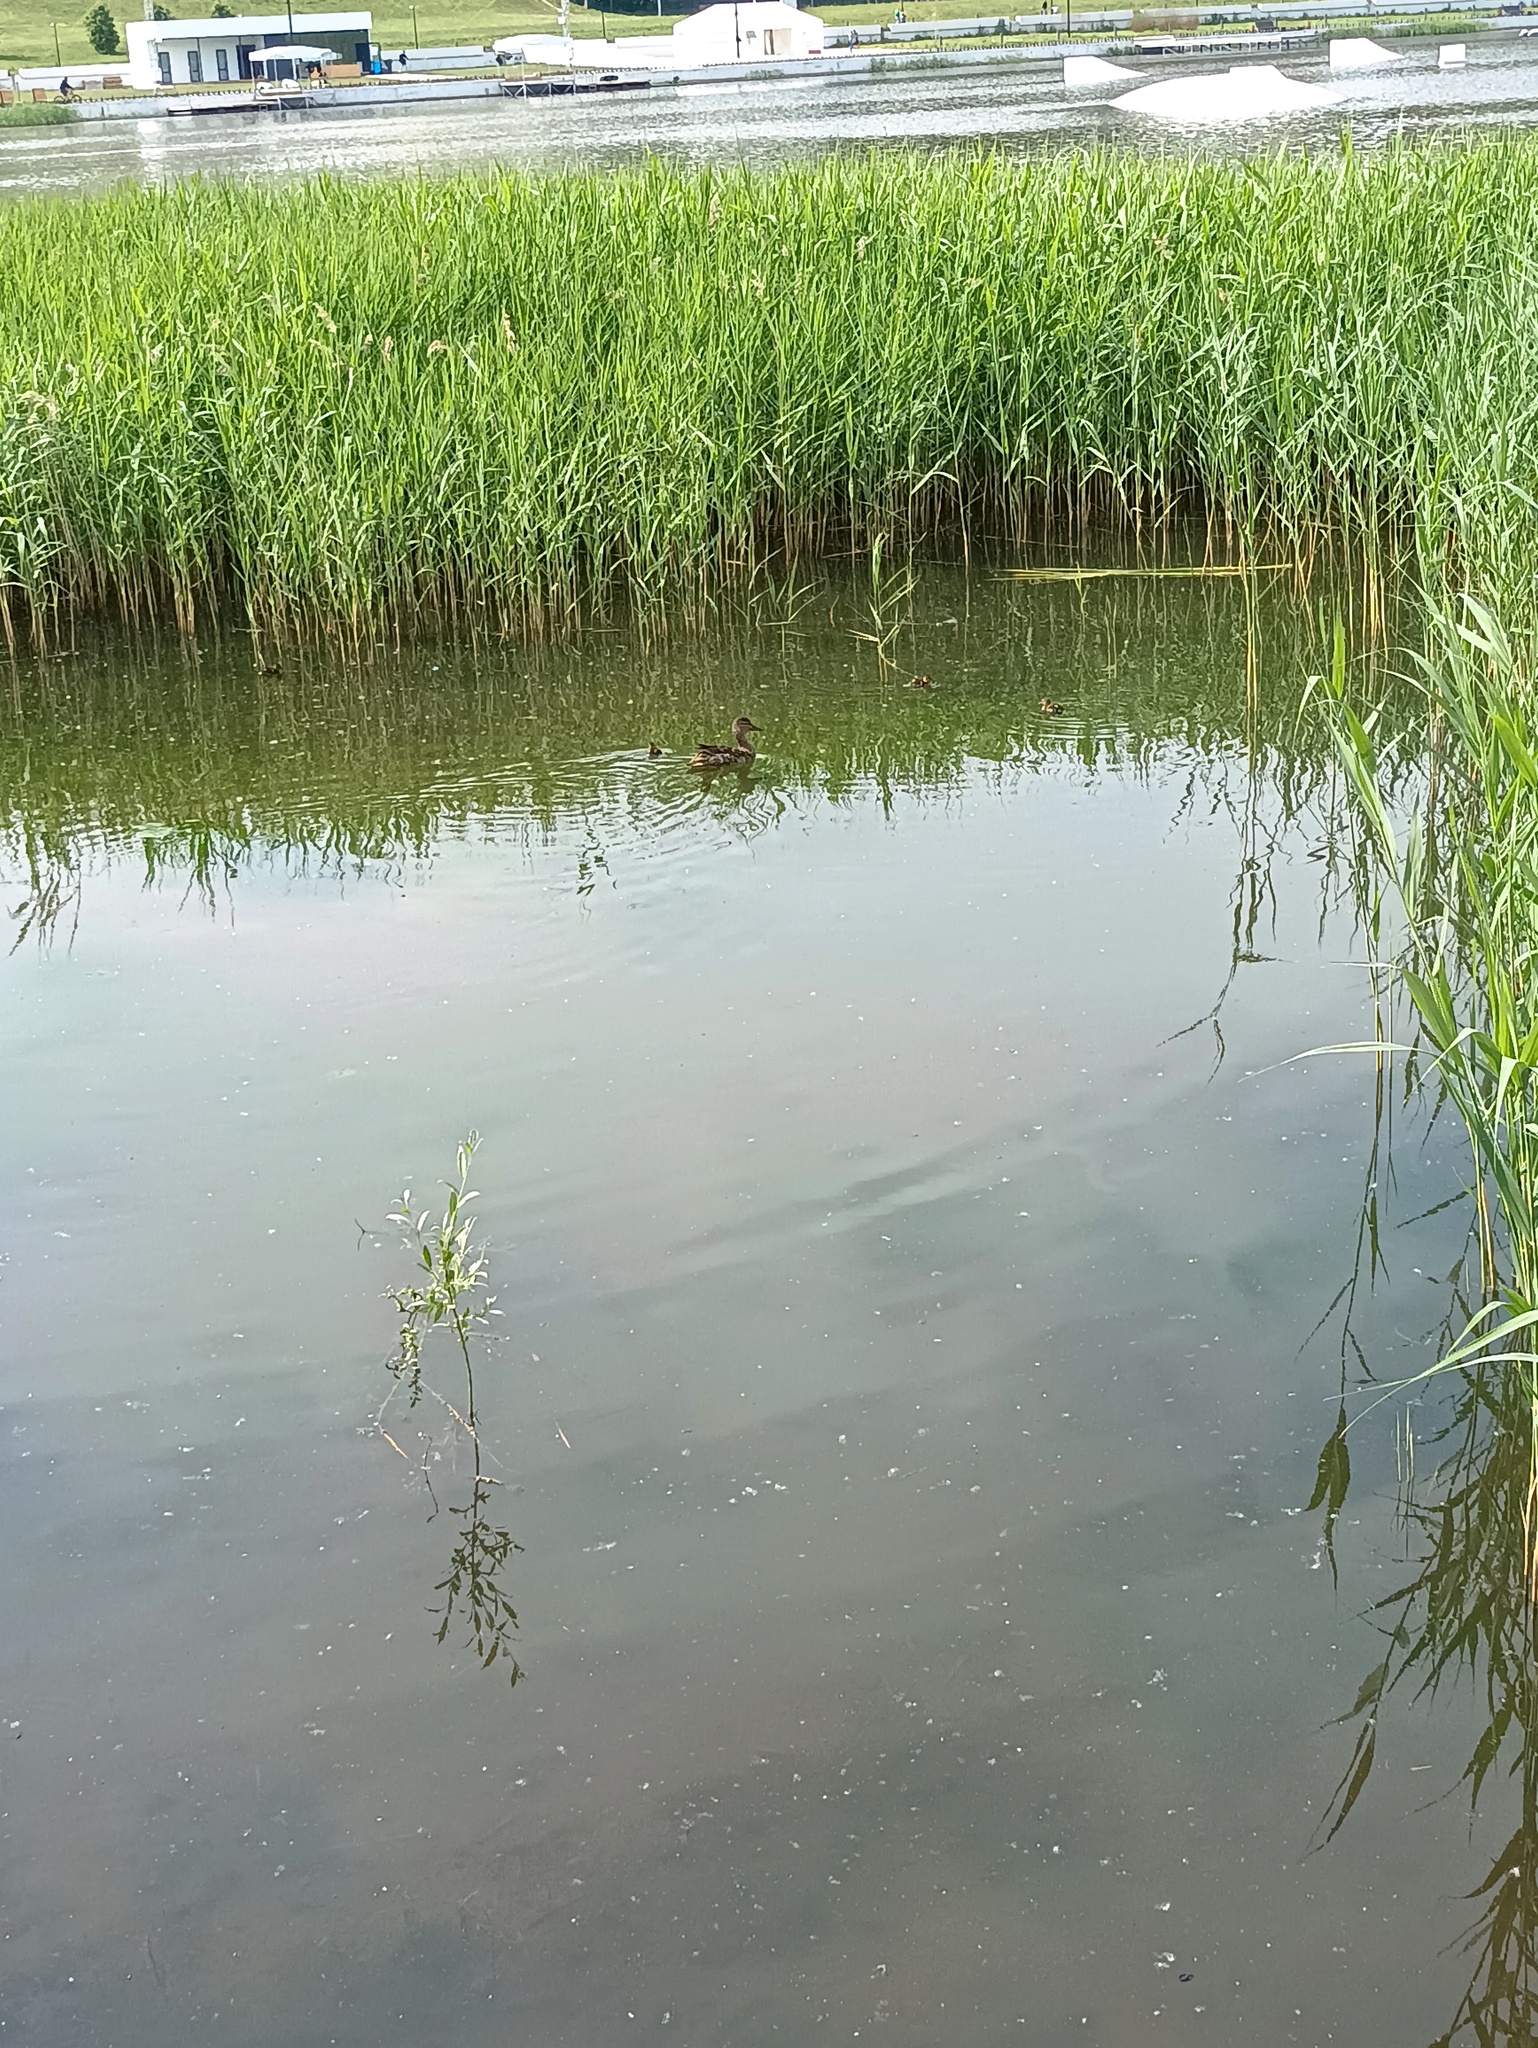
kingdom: Animalia
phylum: Chordata
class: Aves
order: Anseriformes
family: Anatidae
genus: Anas
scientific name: Anas platyrhynchos
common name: Mallard
